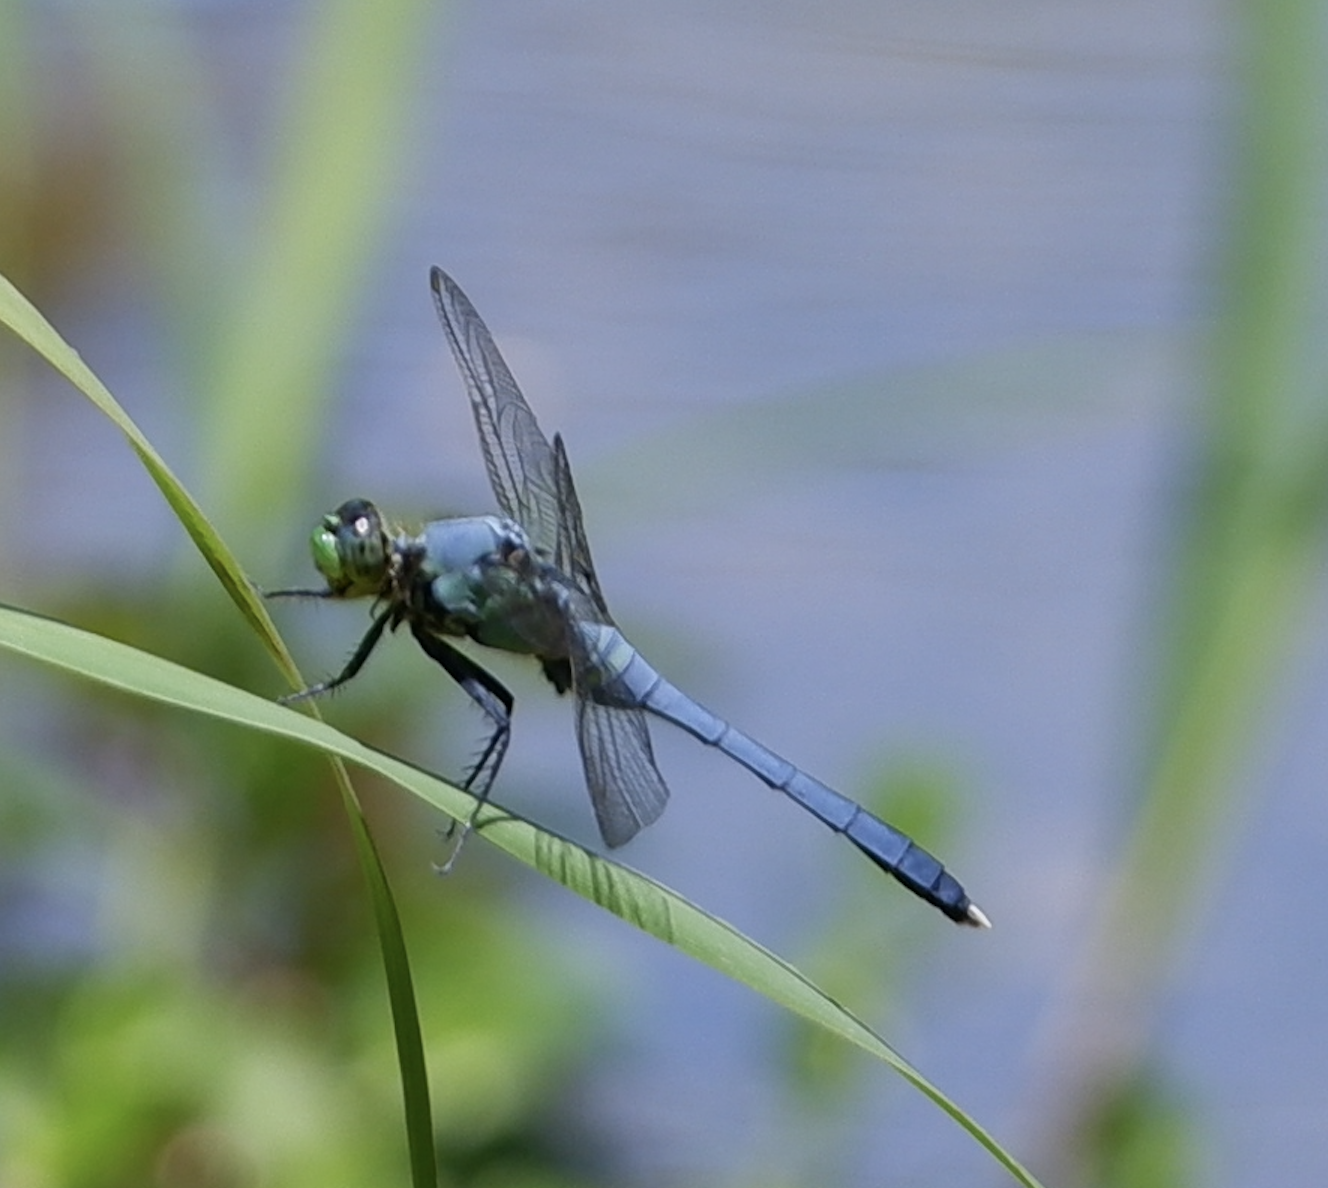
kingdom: Animalia
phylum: Arthropoda
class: Insecta
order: Odonata
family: Libellulidae
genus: Erythemis
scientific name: Erythemis simplicicollis
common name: Eastern pondhawk
